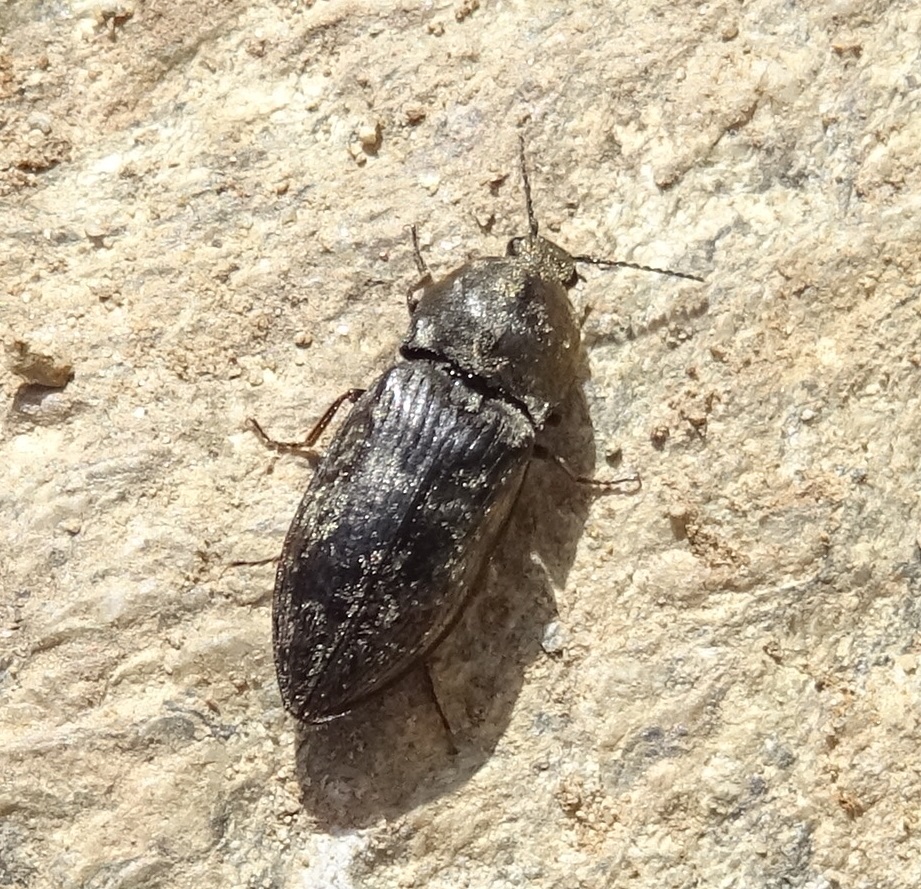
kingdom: Animalia
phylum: Arthropoda
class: Insecta
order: Coleoptera
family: Elateridae
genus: Prosternon
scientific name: Prosternon tessellatum
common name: Chequered click beetle
